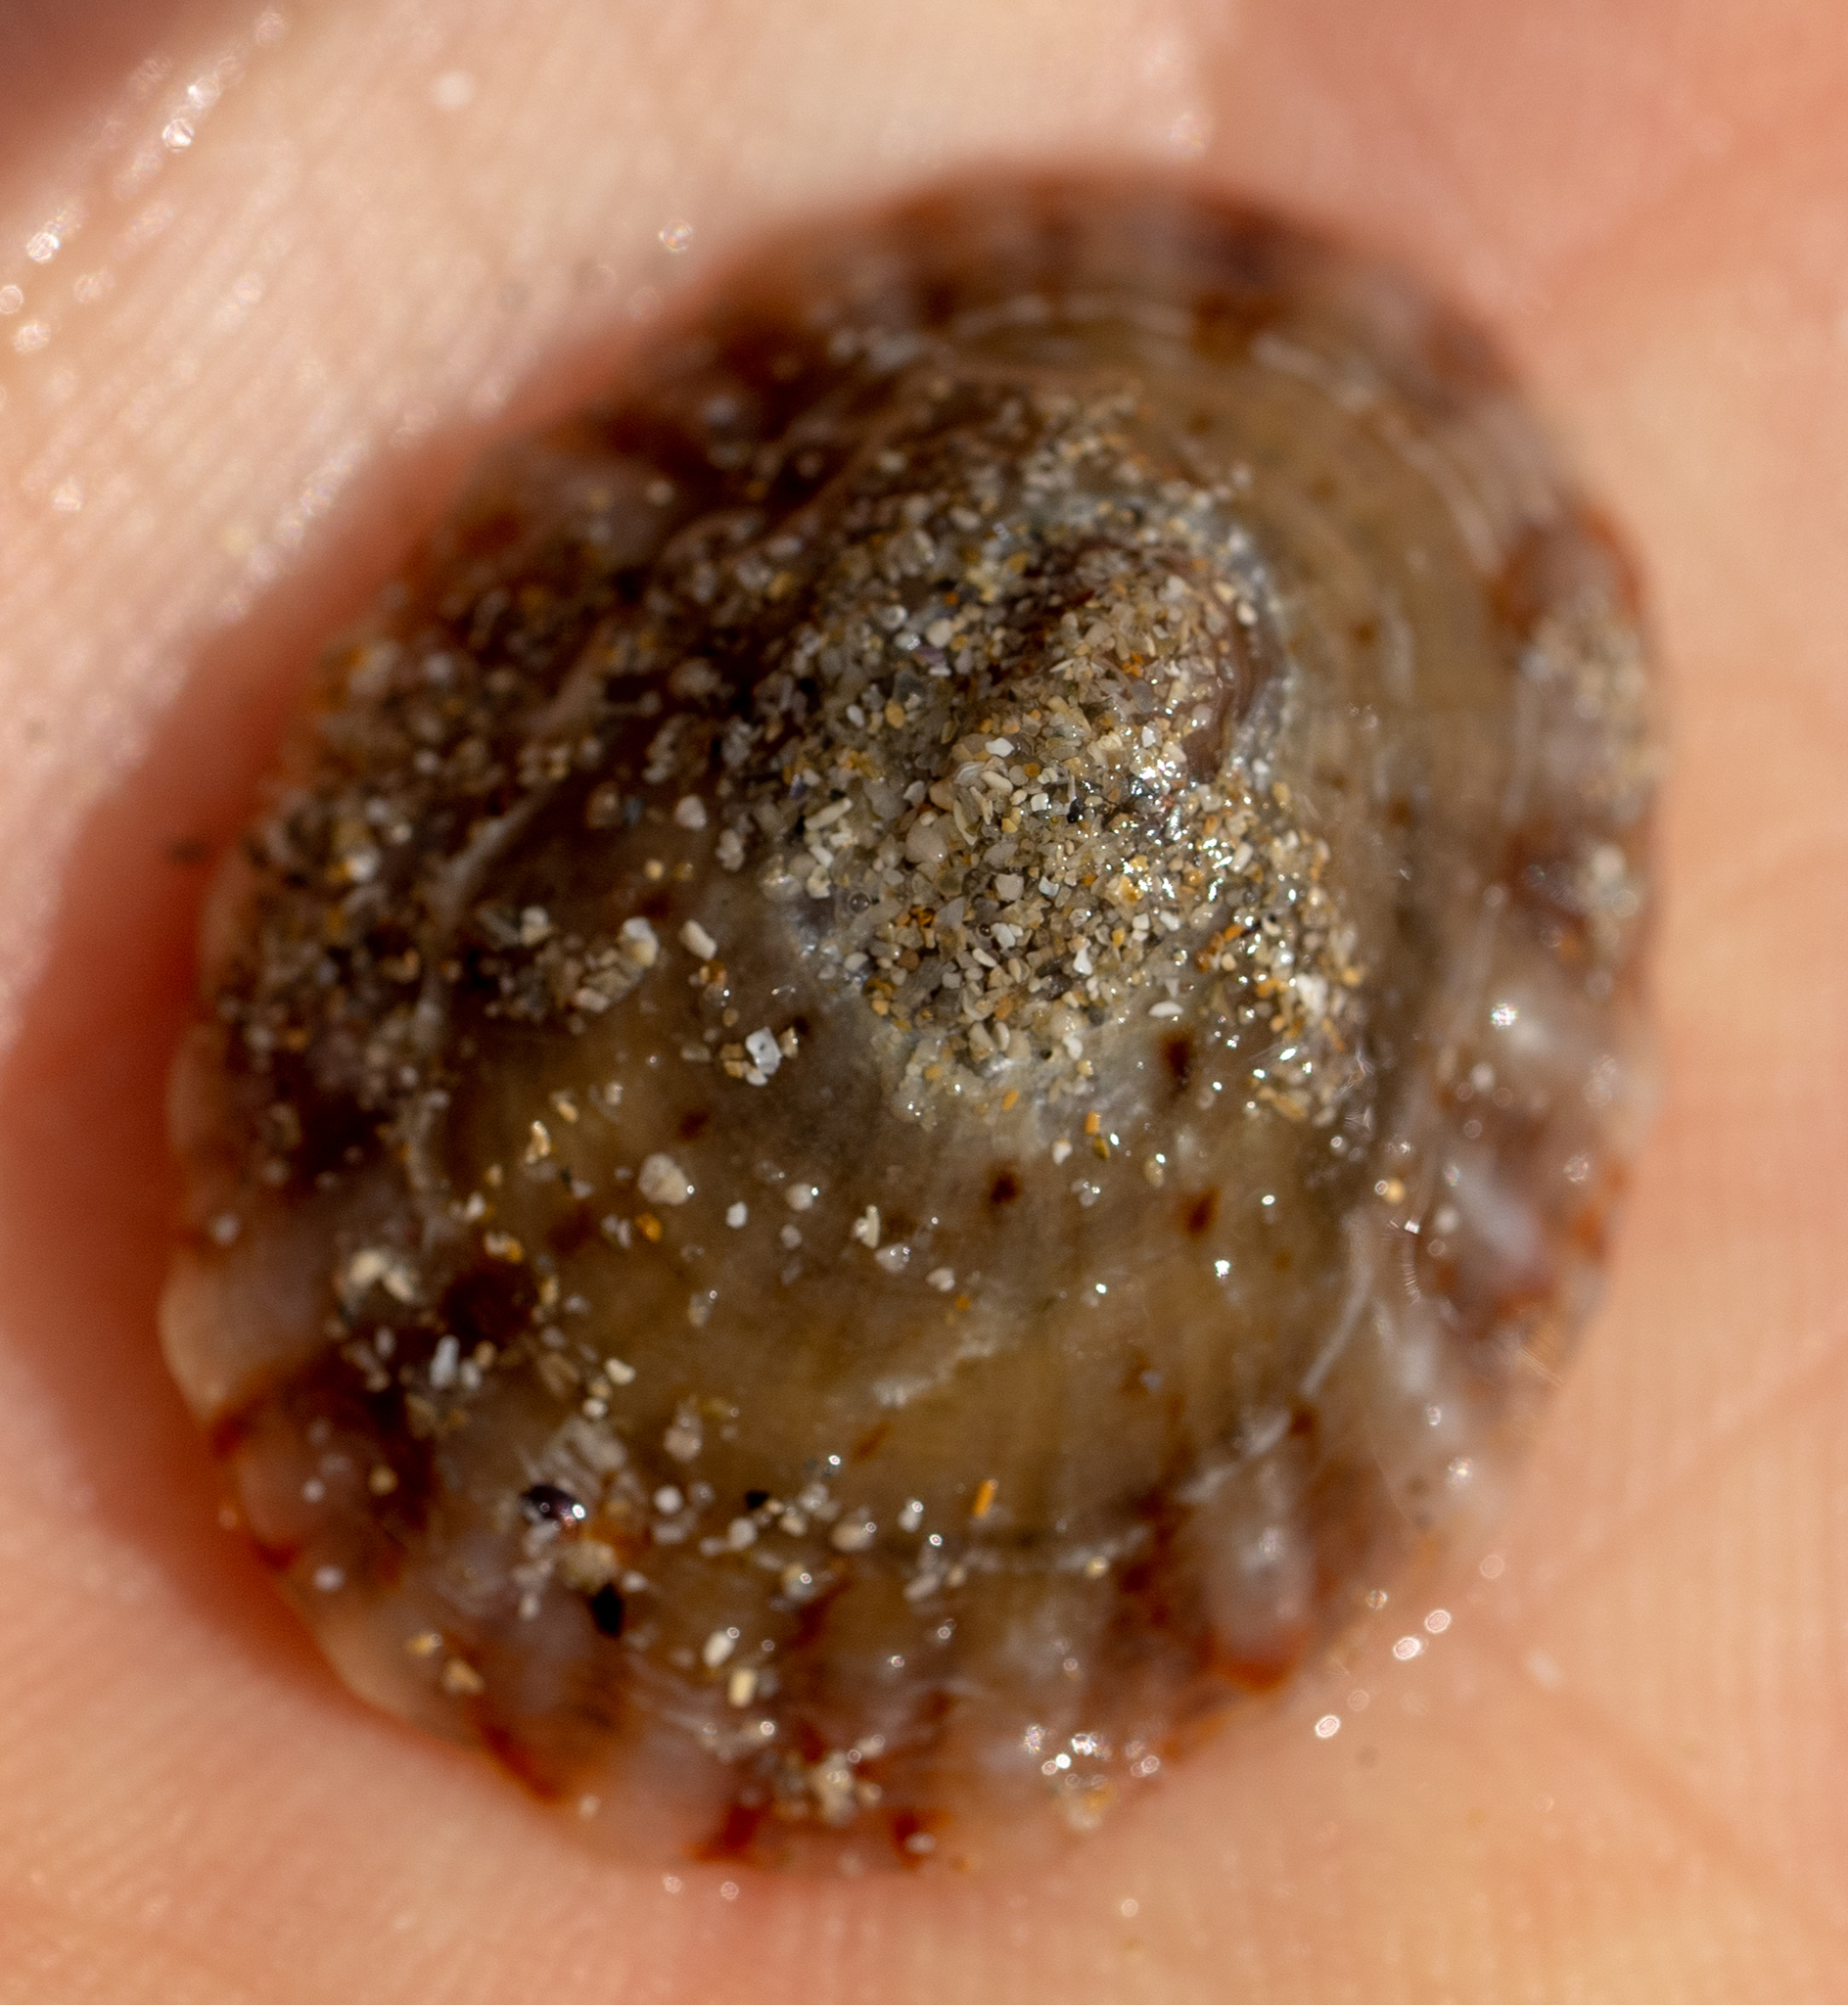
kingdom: Animalia
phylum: Mollusca
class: Gastropoda
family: Nacellidae
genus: Cellana
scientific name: Cellana tramoserica
